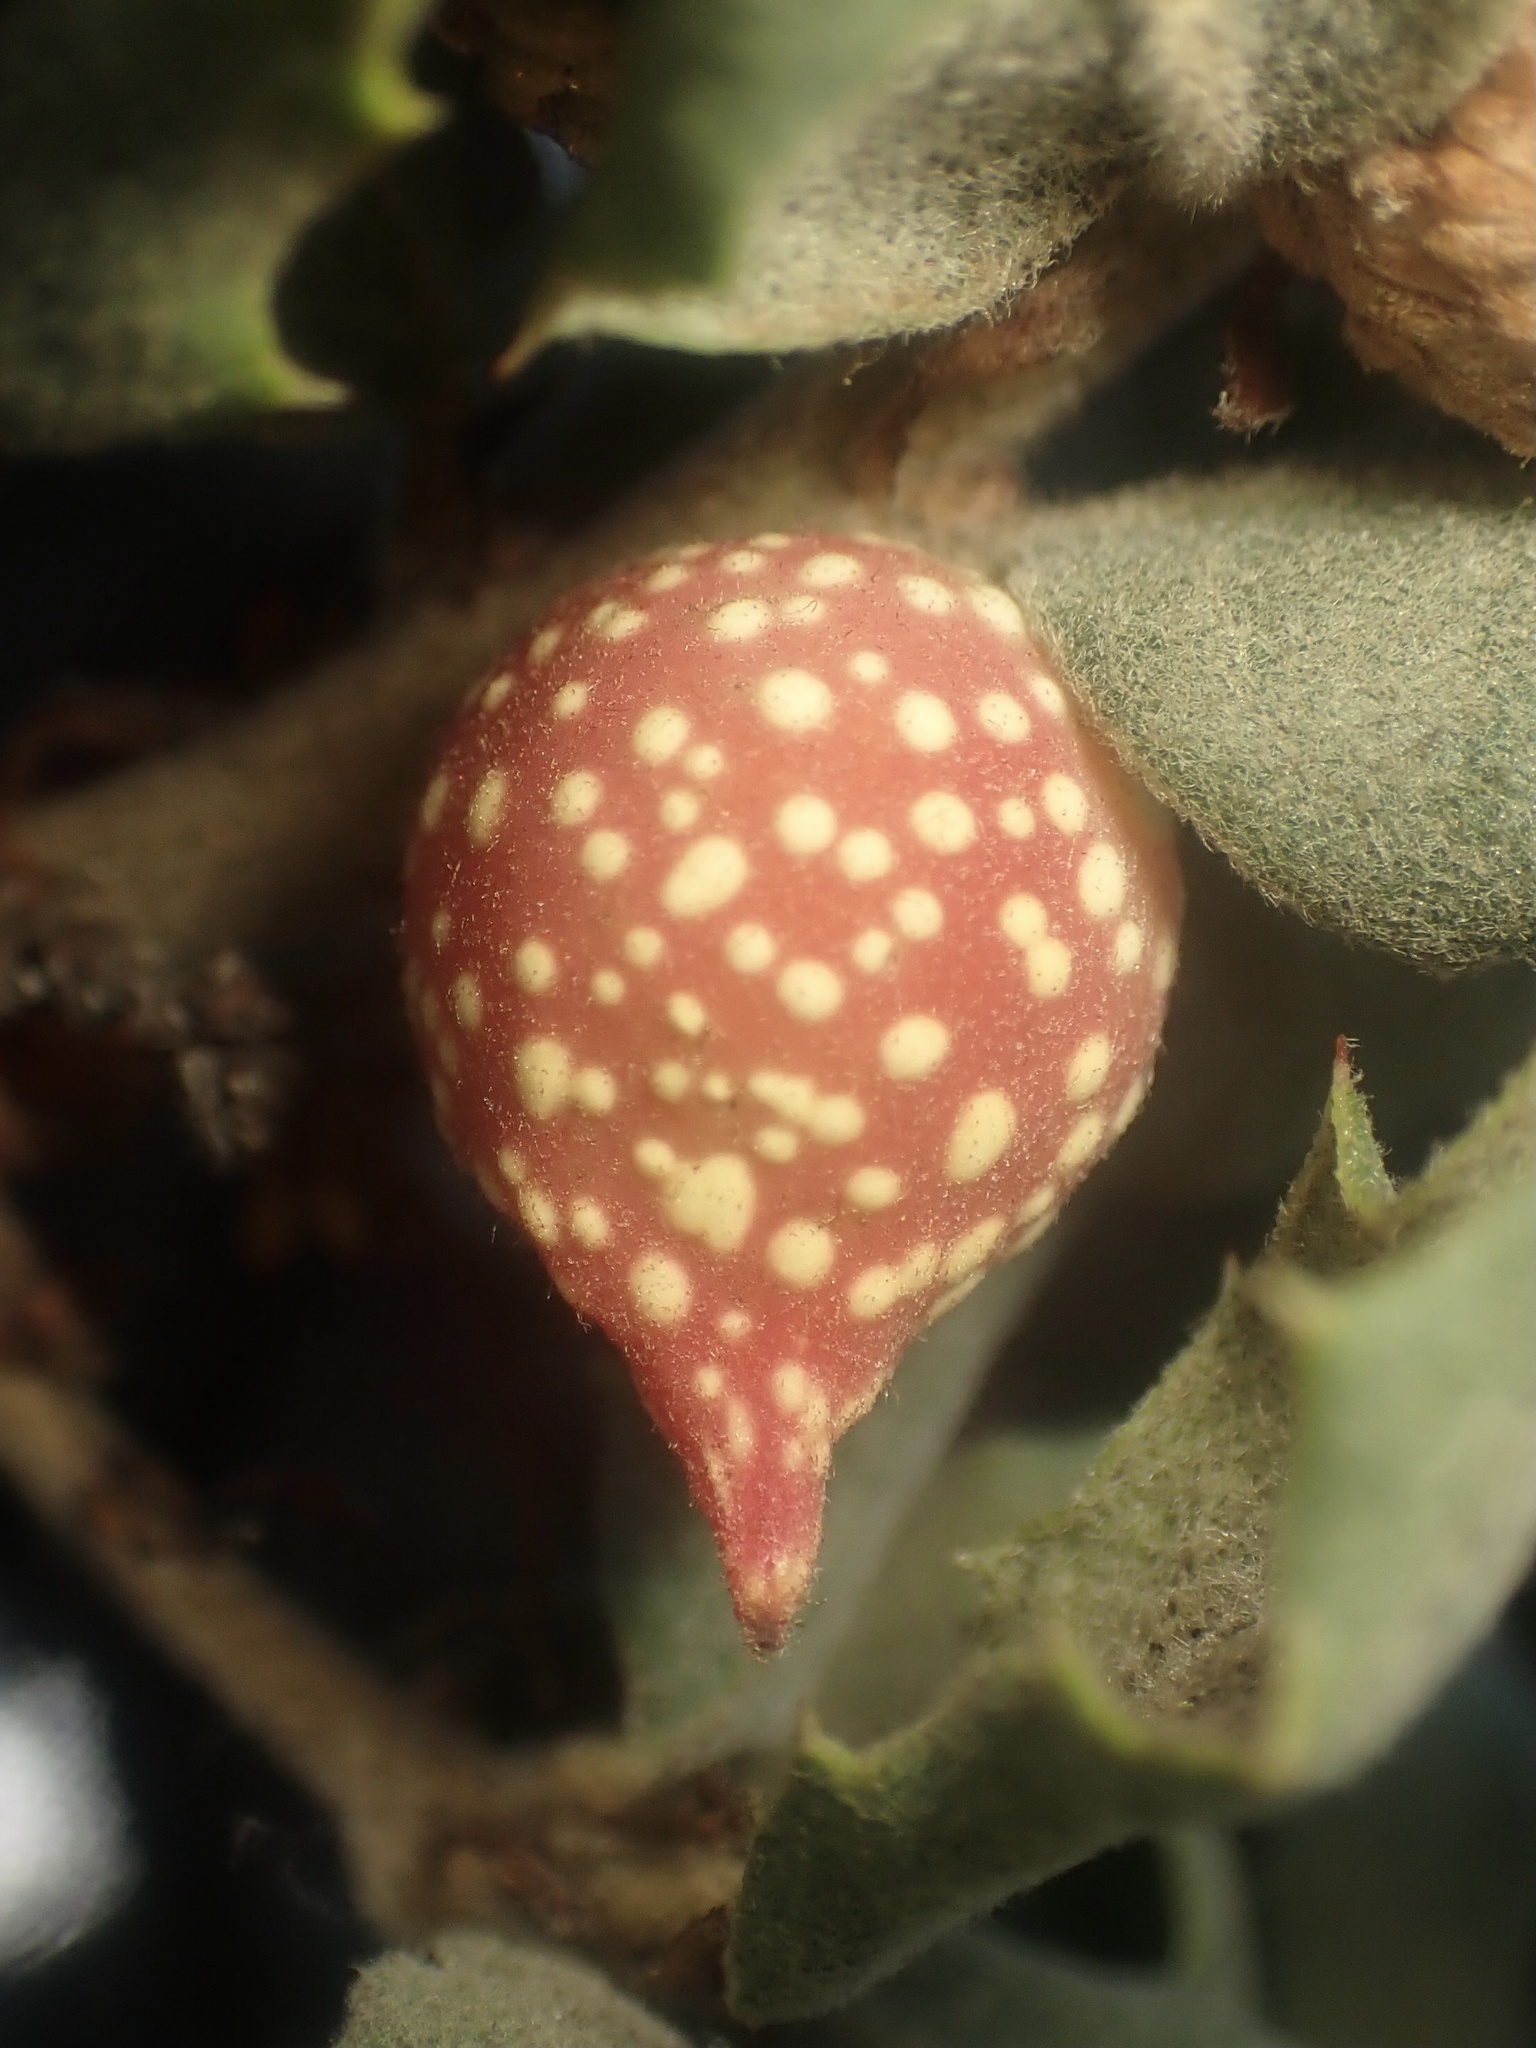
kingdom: Animalia
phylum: Arthropoda
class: Insecta
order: Hymenoptera
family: Cynipidae
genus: Burnettweldia
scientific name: Burnettweldia
